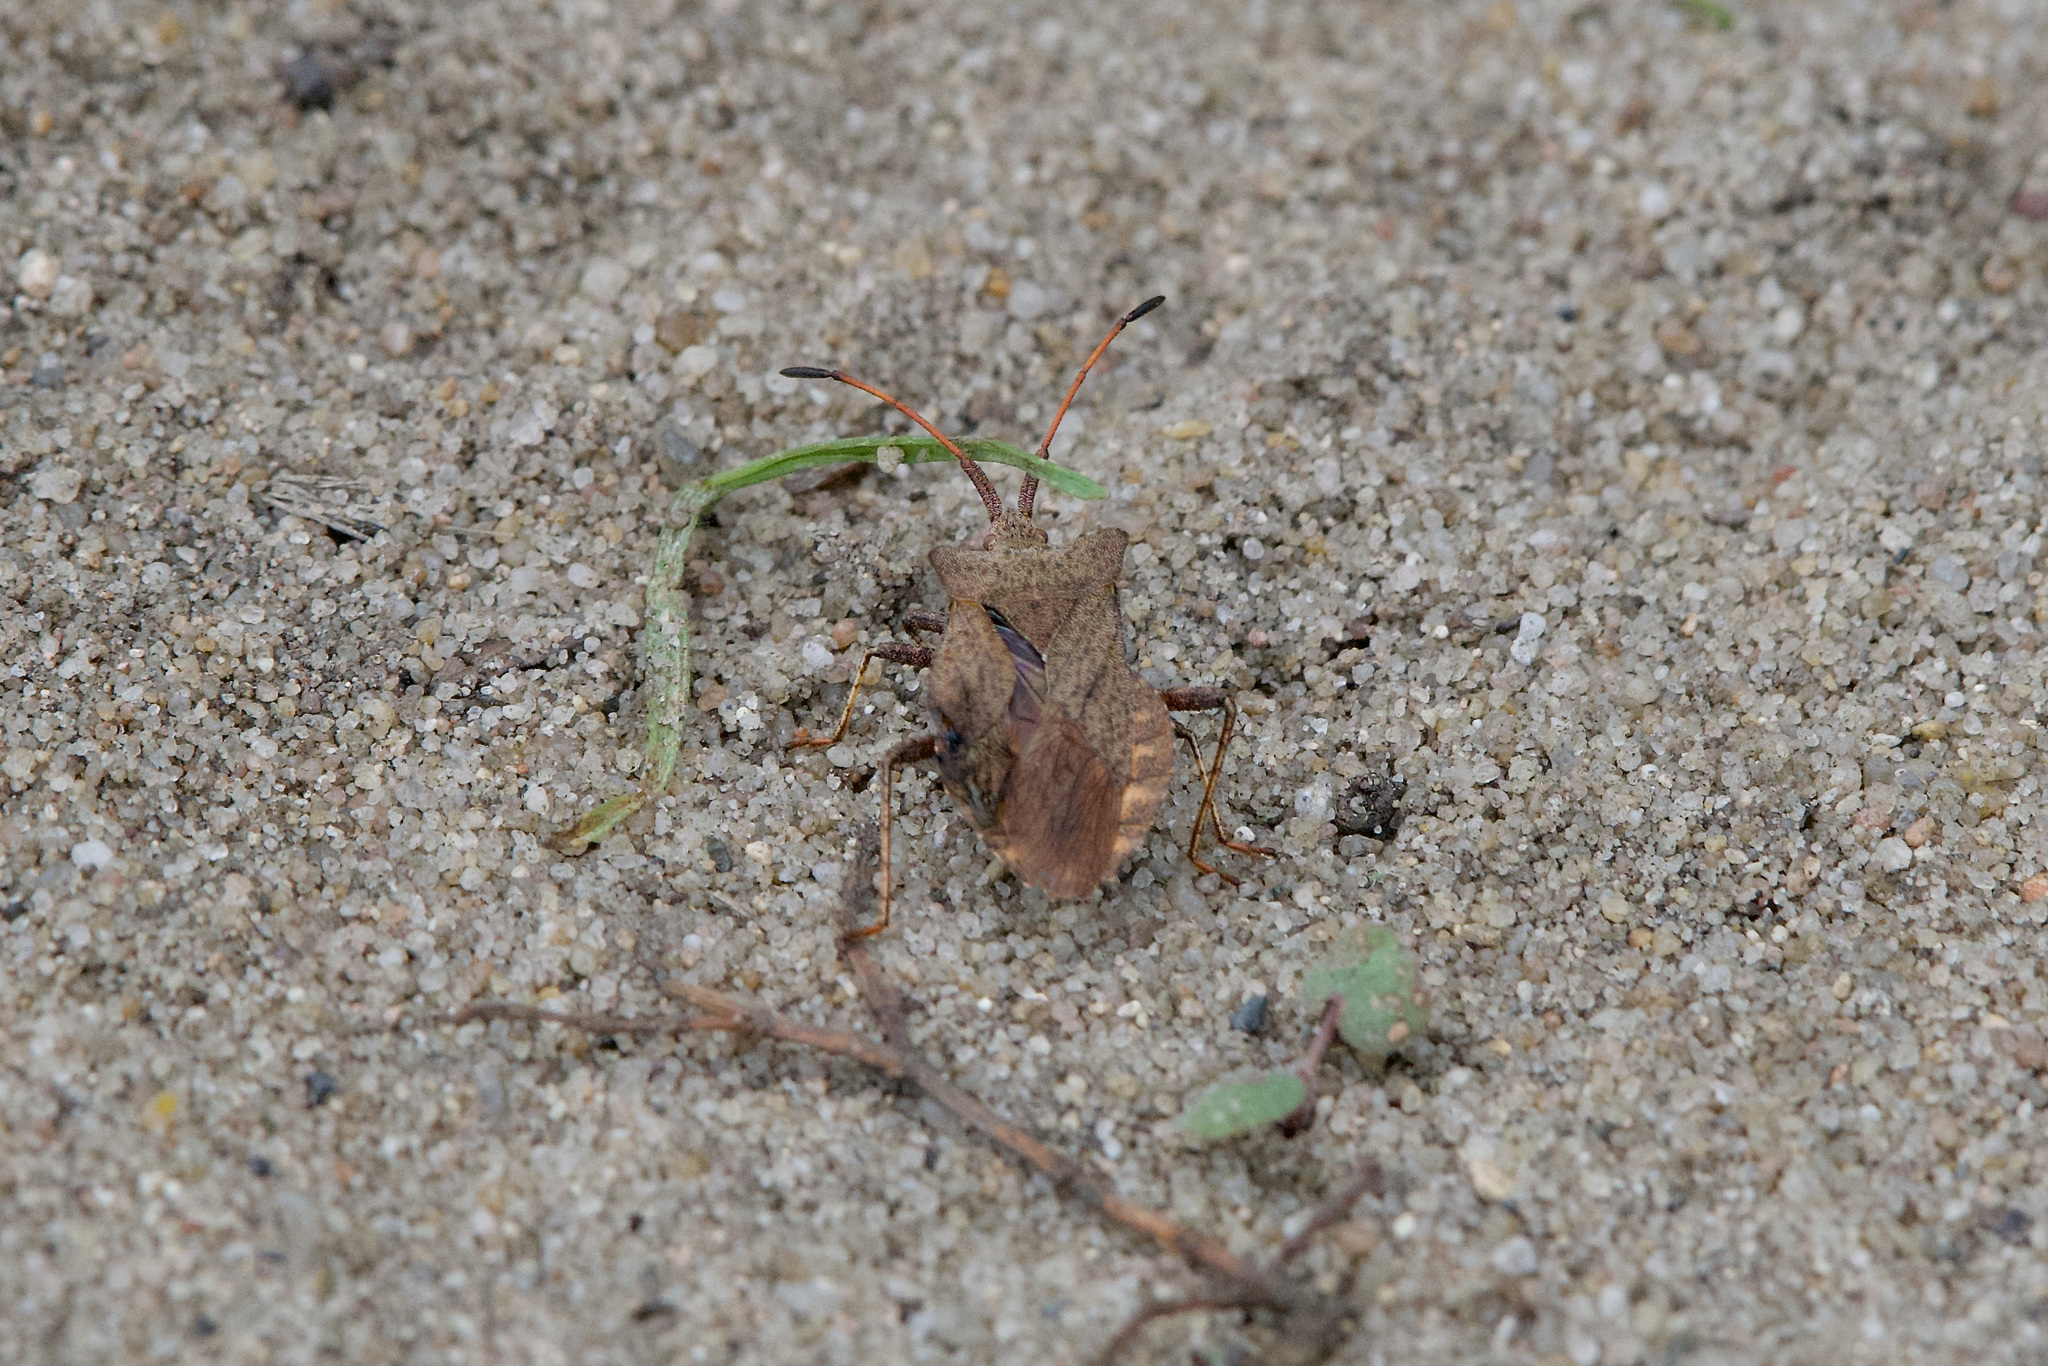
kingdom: Animalia
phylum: Arthropoda
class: Insecta
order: Hemiptera
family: Coreidae
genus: Coreus
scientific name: Coreus marginatus
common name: Dock bug
